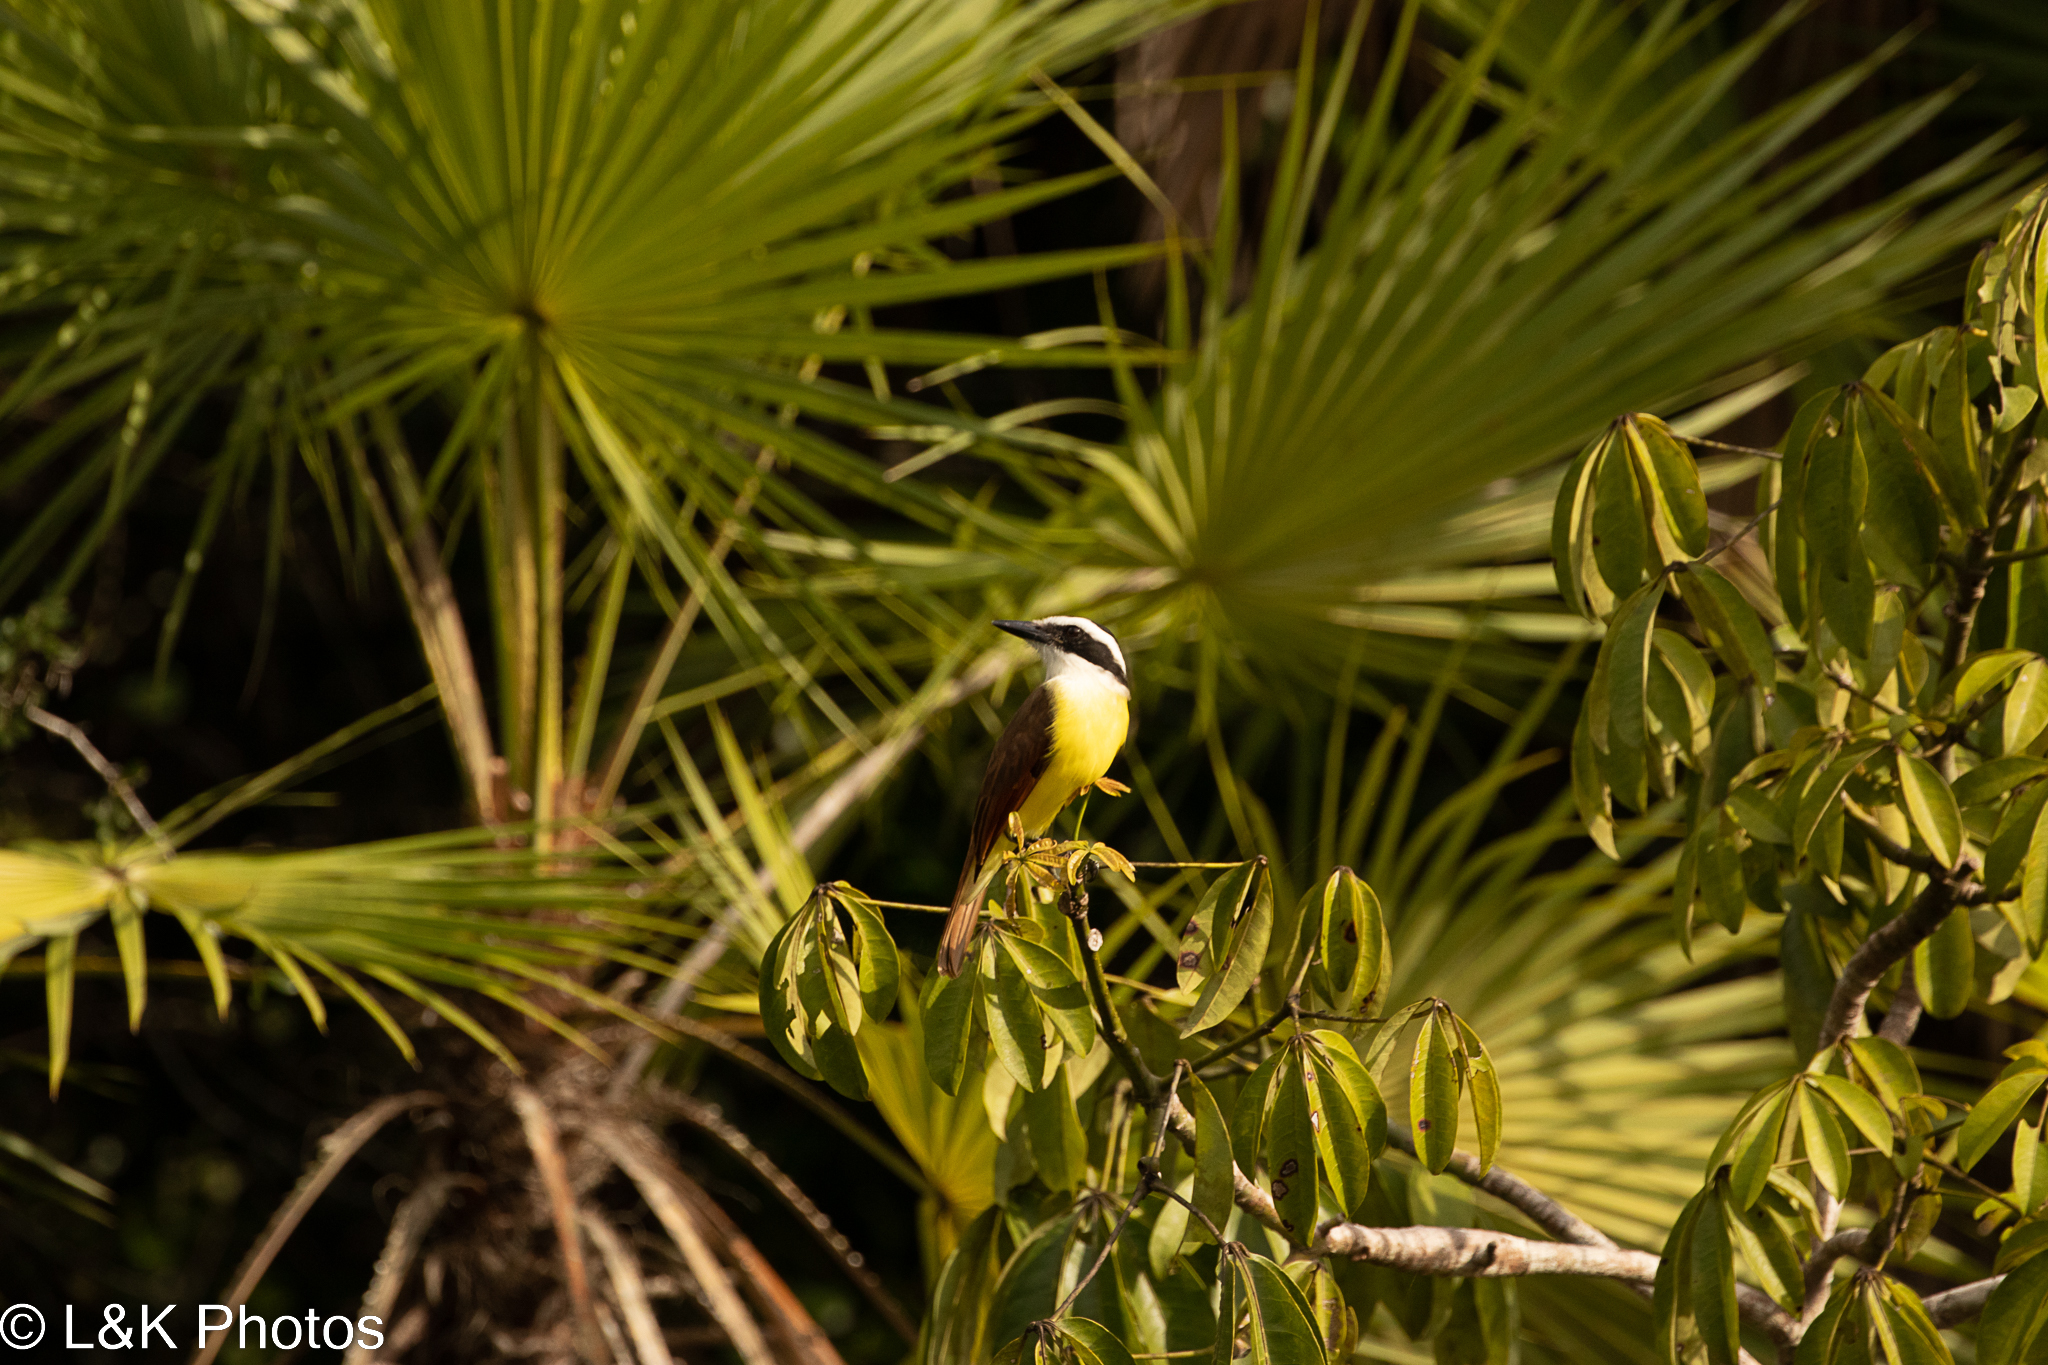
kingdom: Animalia
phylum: Chordata
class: Aves
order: Passeriformes
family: Tyrannidae
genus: Pitangus
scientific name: Pitangus sulphuratus
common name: Great kiskadee
